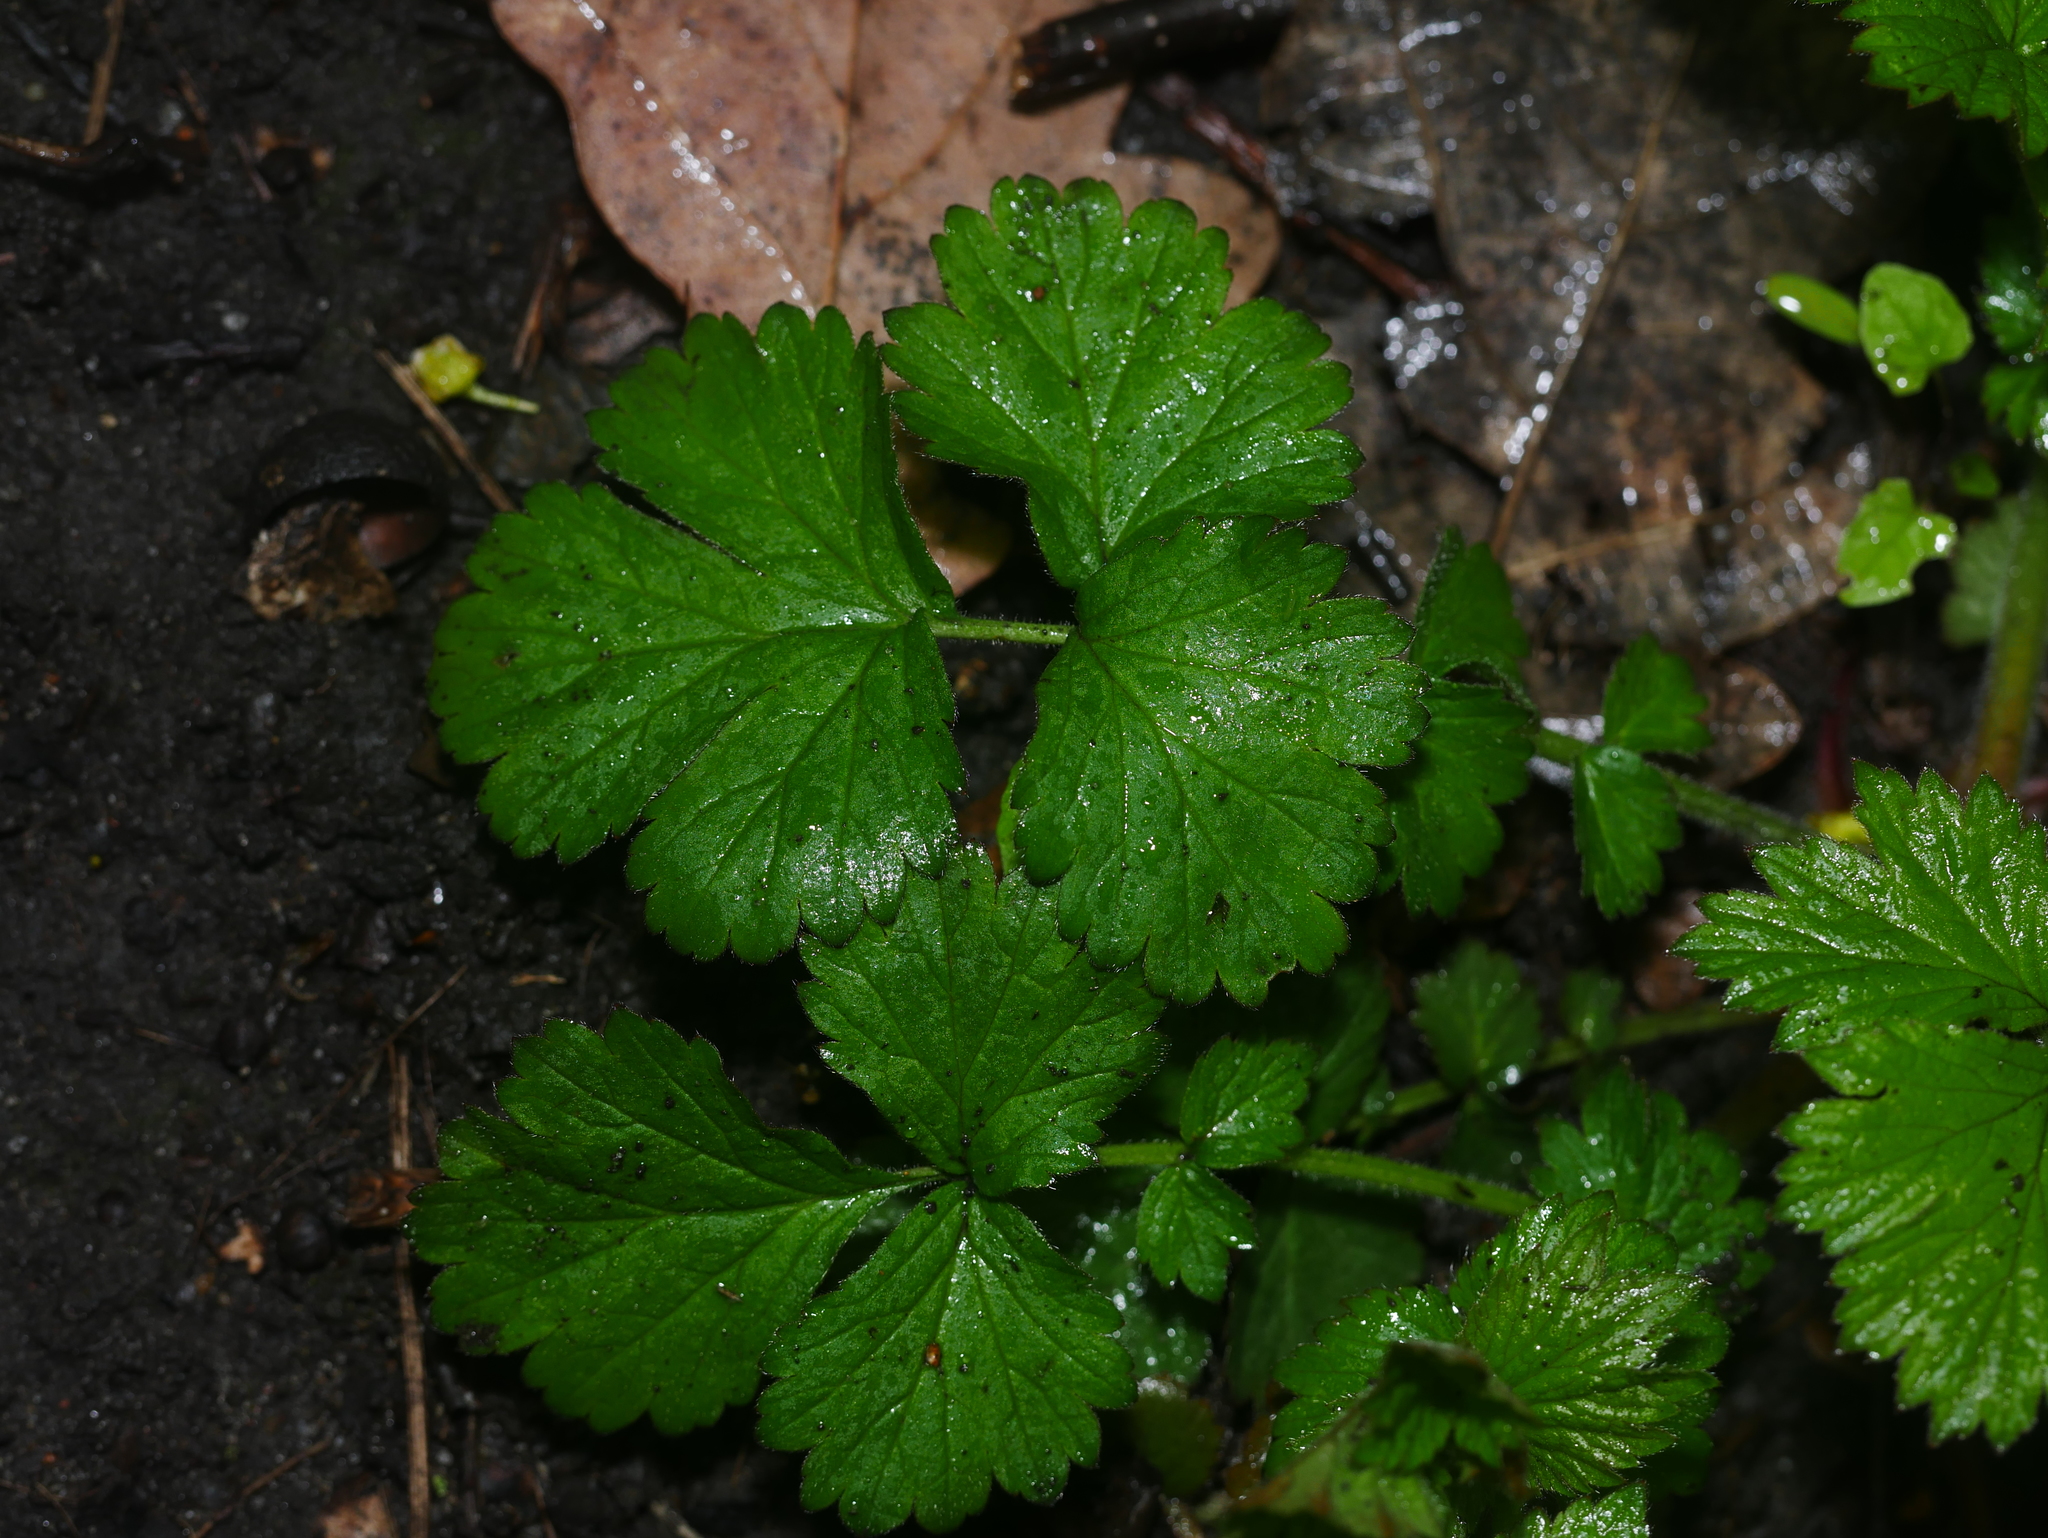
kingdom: Plantae
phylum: Tracheophyta
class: Magnoliopsida
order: Rosales
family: Rosaceae
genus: Geum
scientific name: Geum urbanum
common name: Wood avens
